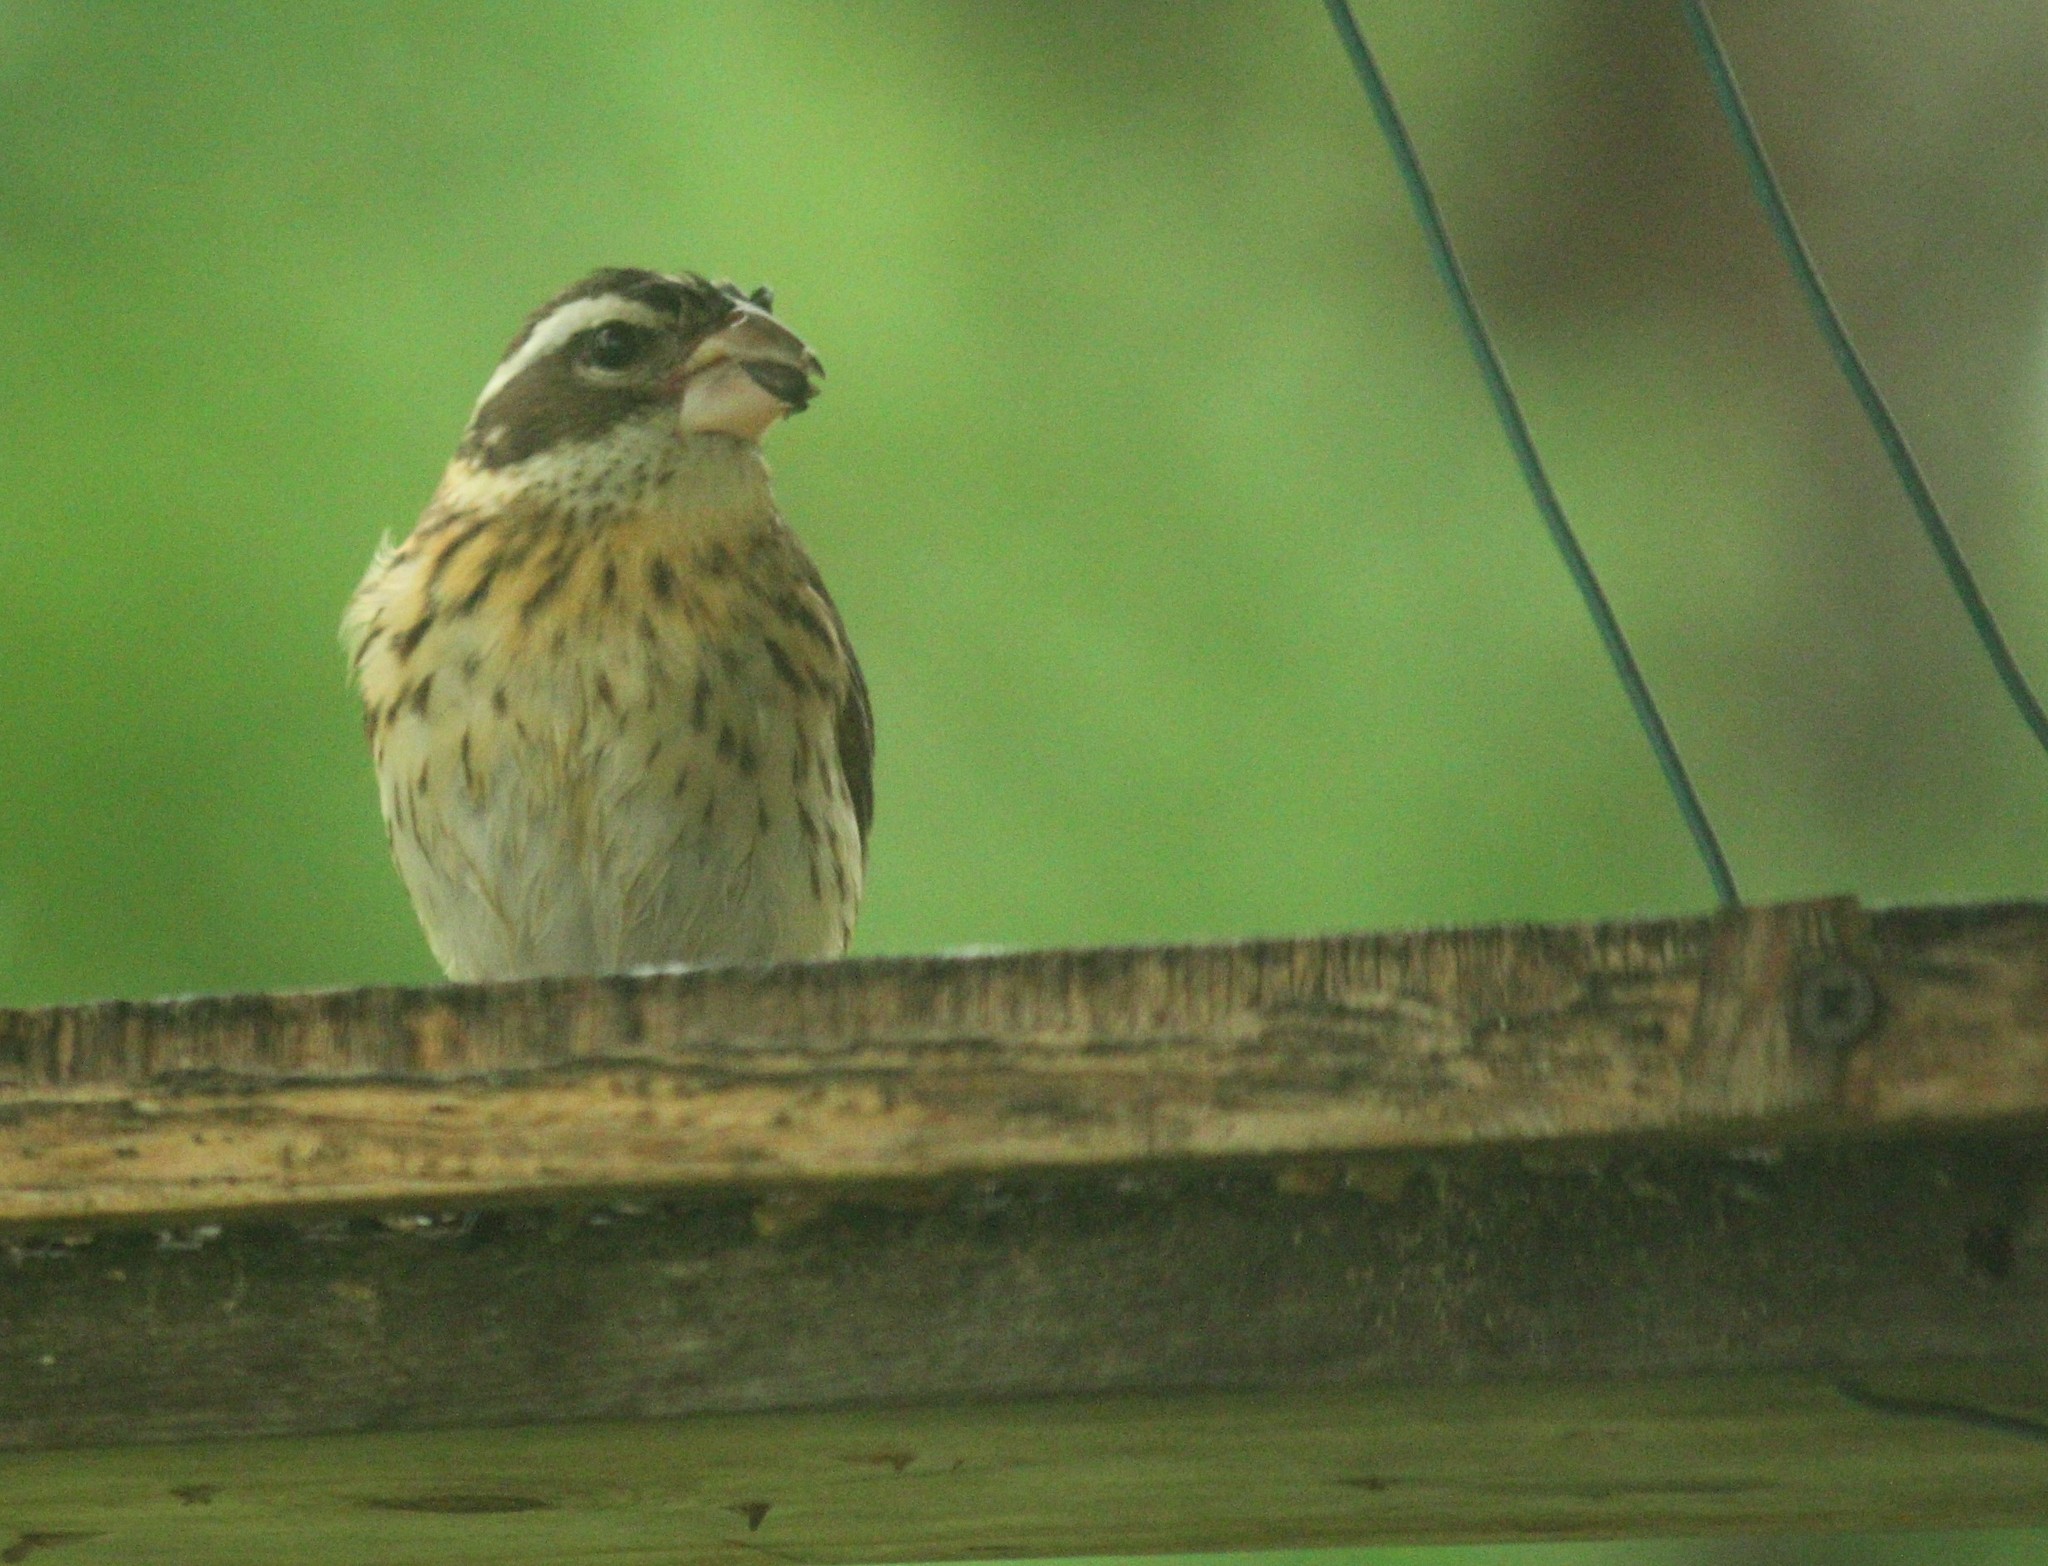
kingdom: Animalia
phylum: Chordata
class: Aves
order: Passeriformes
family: Cardinalidae
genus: Pheucticus
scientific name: Pheucticus ludovicianus
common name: Rose-breasted grosbeak
